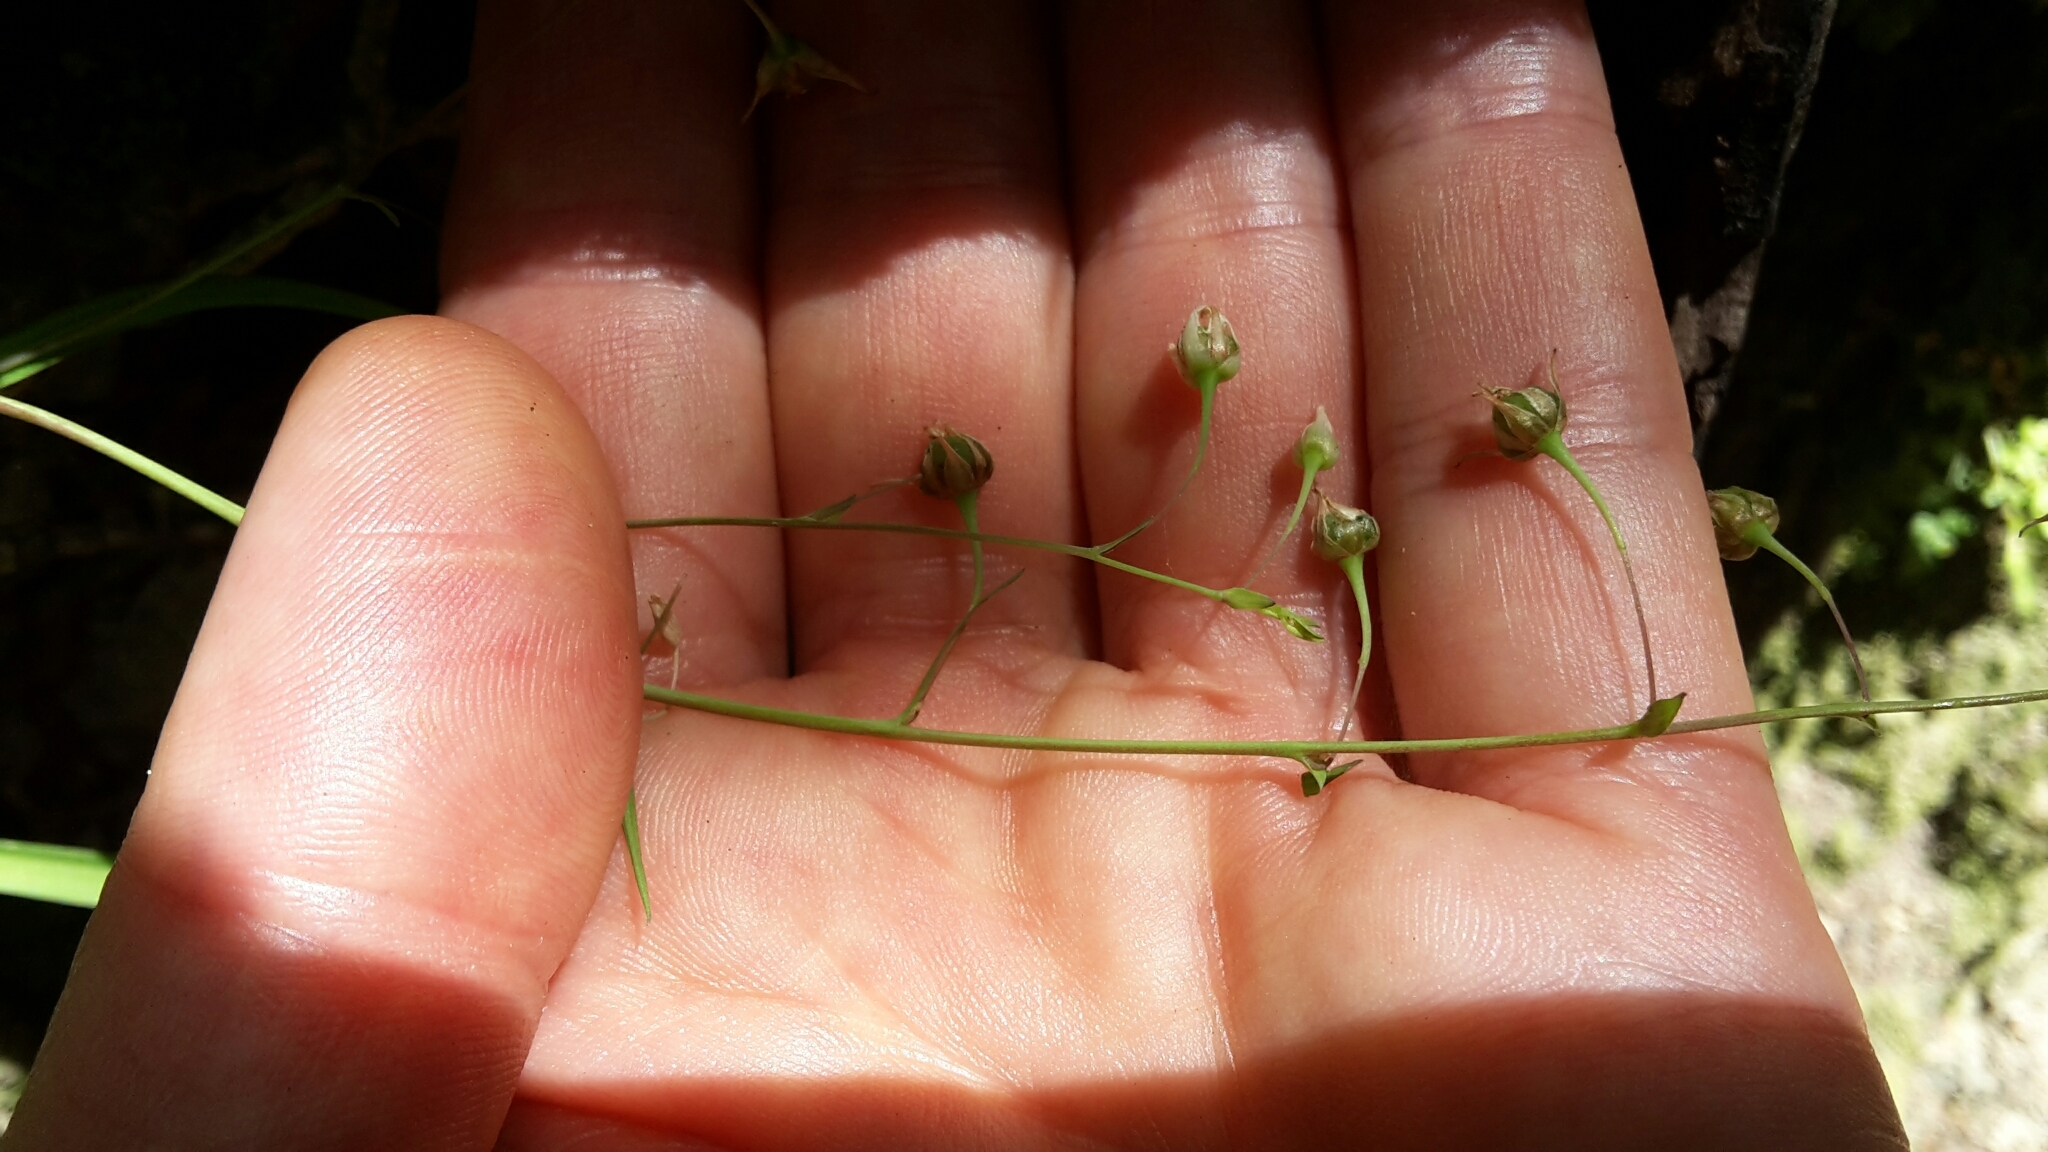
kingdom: Plantae
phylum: Tracheophyta
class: Liliopsida
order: Asparagales
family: Asparagaceae
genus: Arthropodium
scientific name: Arthropodium candidum
